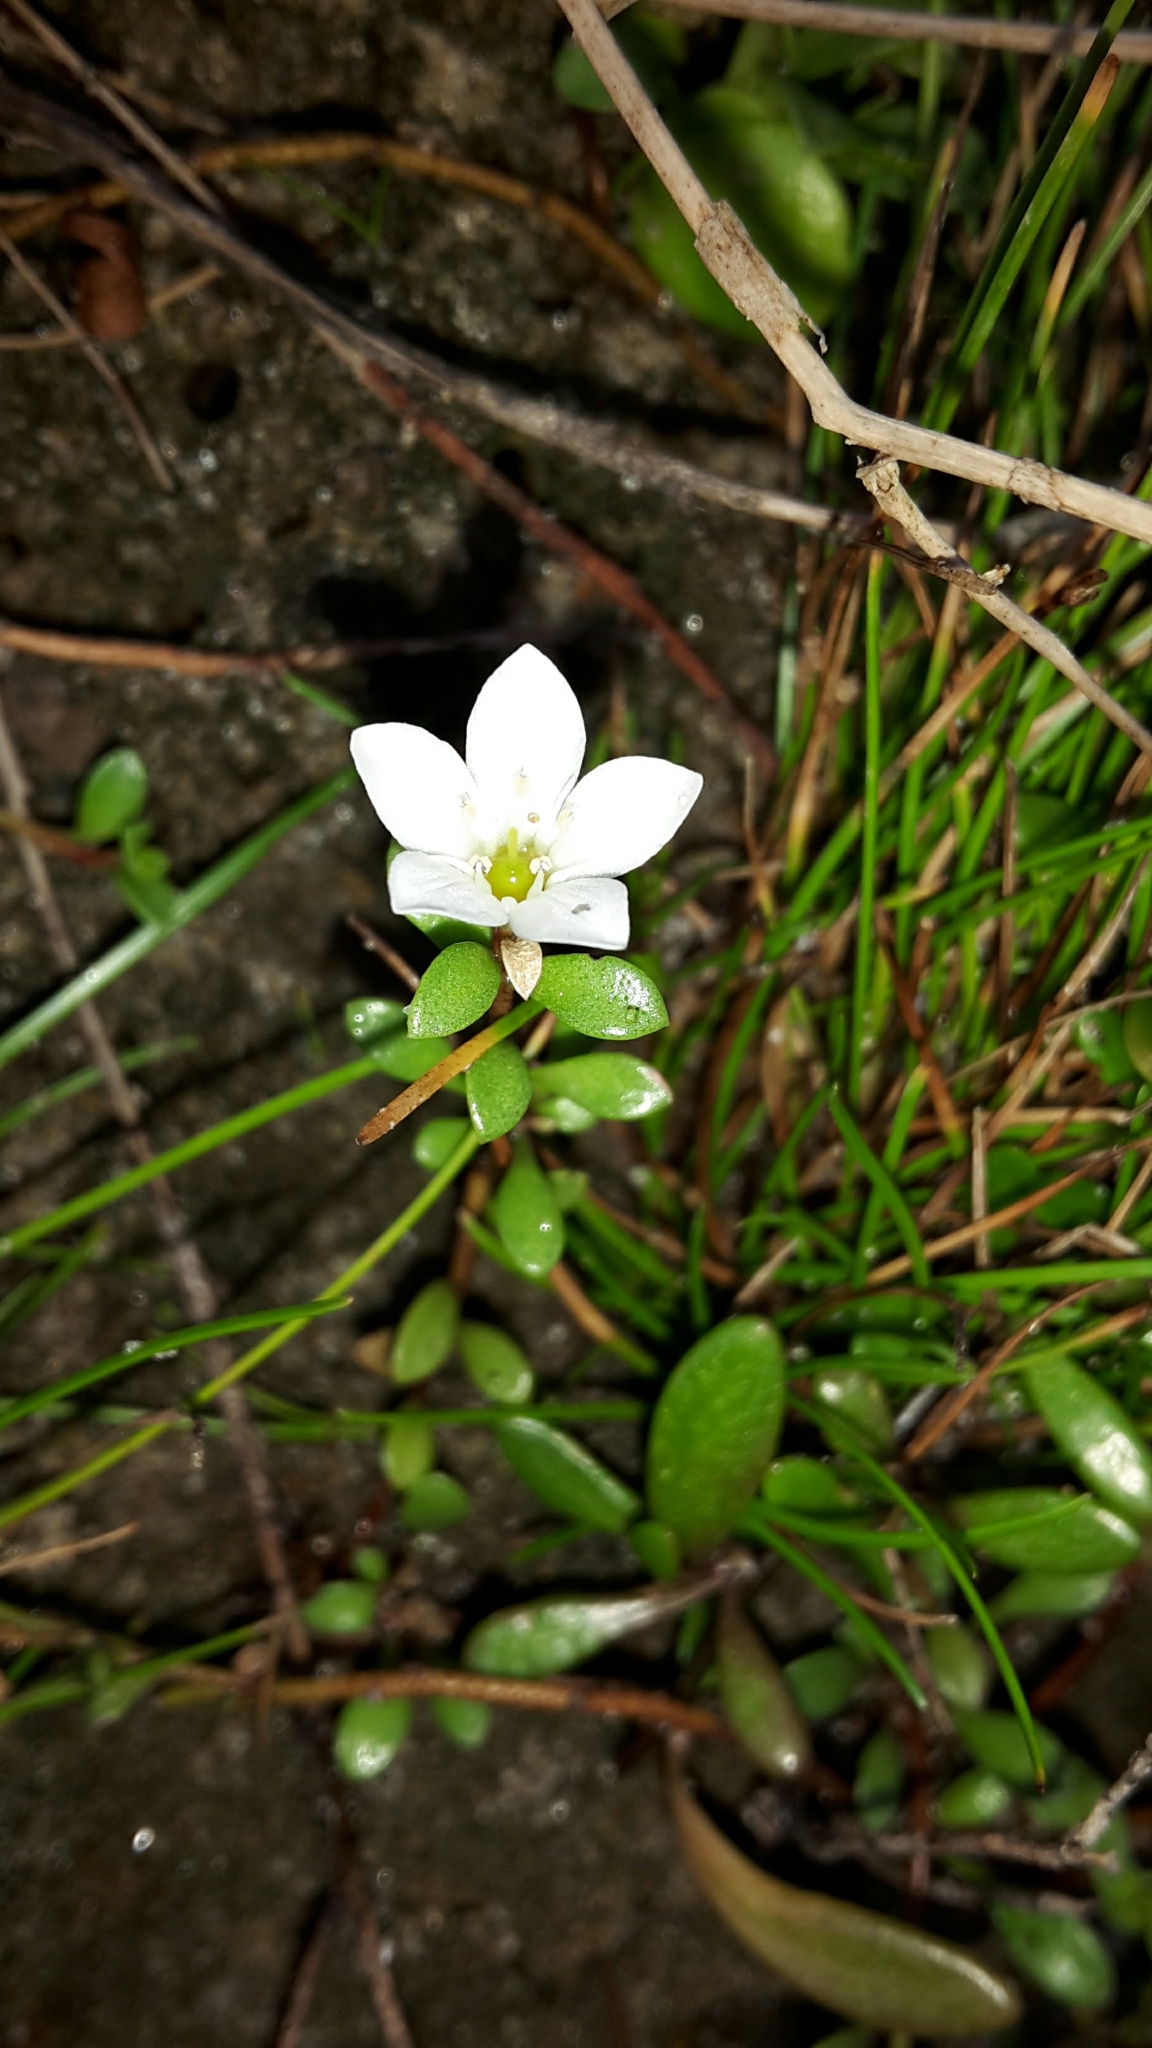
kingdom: Plantae
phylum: Tracheophyta
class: Magnoliopsida
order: Ericales
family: Primulaceae
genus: Samolus
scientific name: Samolus repens
